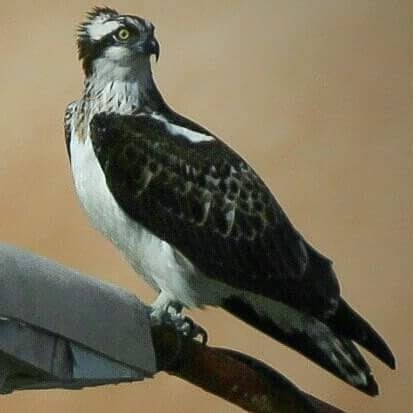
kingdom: Animalia
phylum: Chordata
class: Aves
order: Accipitriformes
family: Pandionidae
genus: Pandion
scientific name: Pandion haliaetus
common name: Osprey
